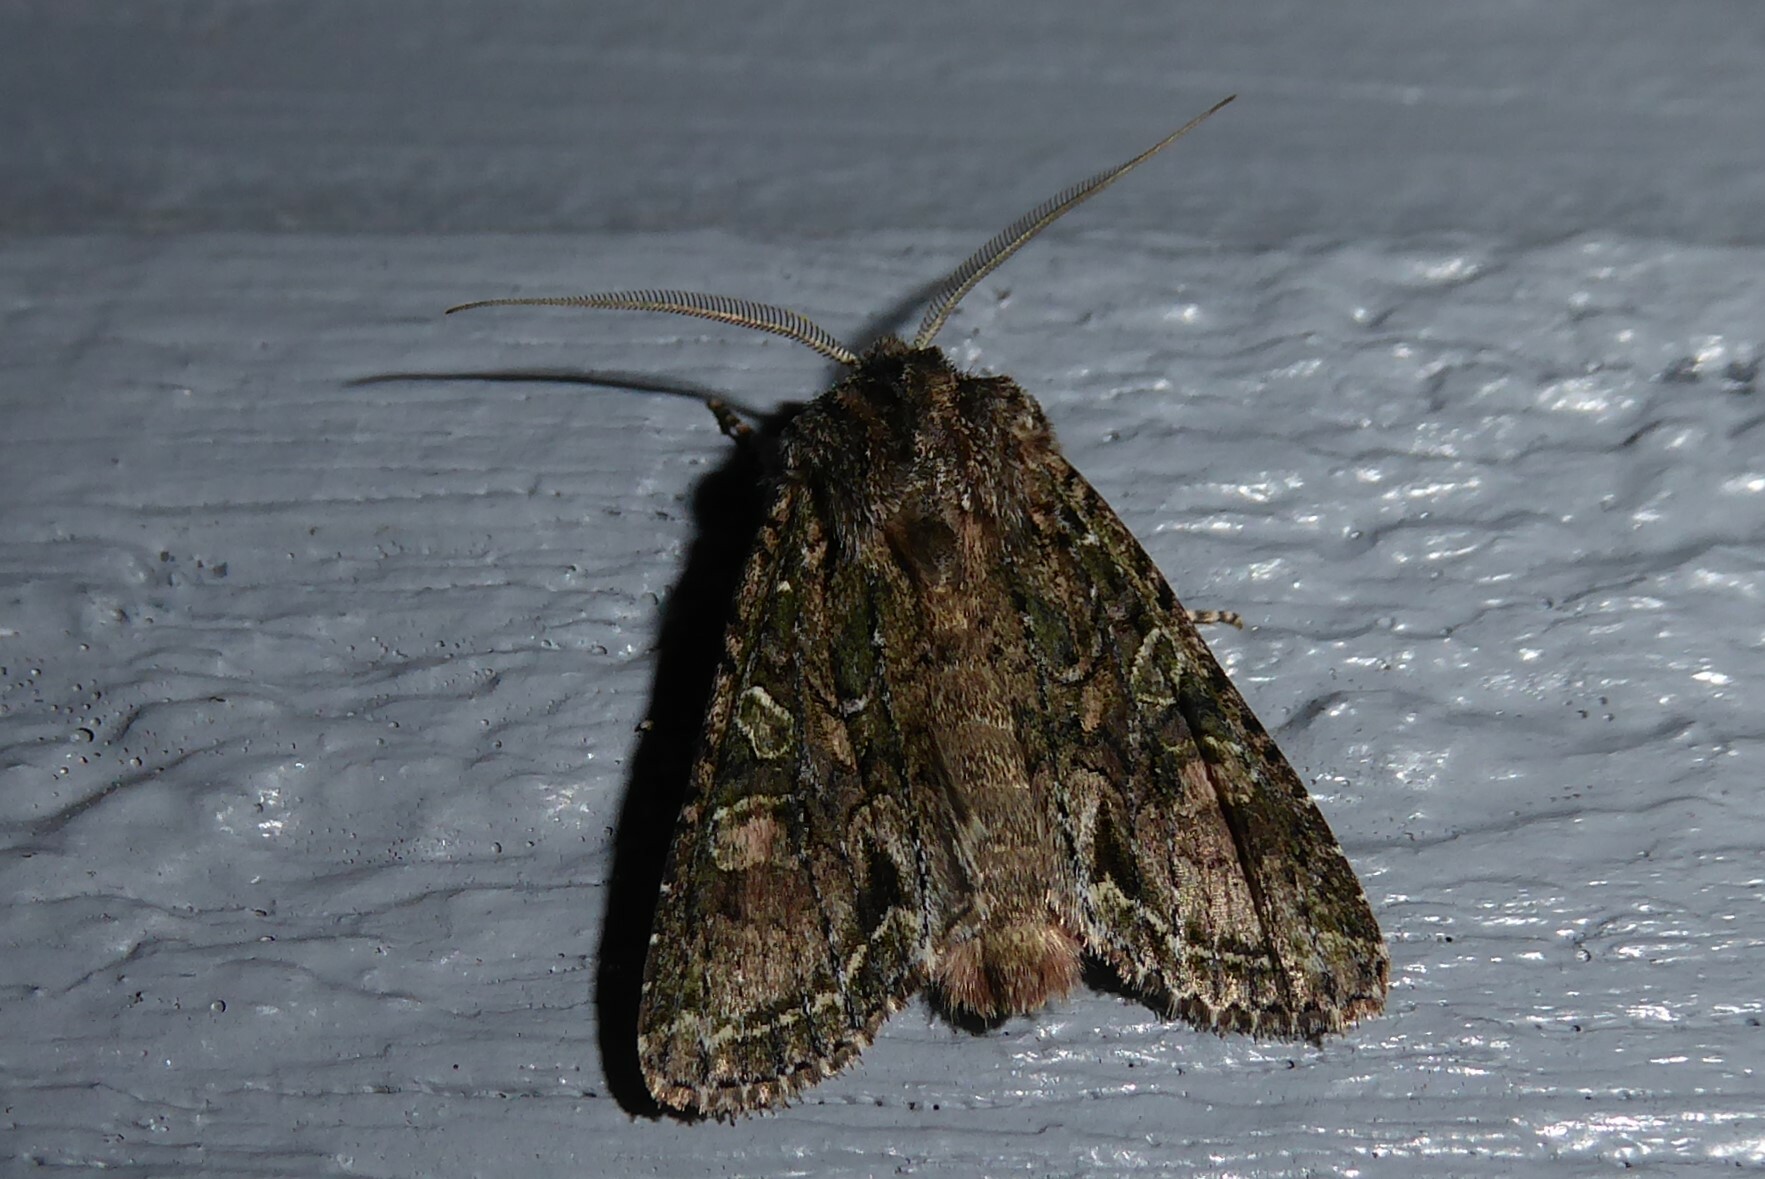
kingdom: Animalia
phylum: Arthropoda
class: Insecta
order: Lepidoptera
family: Noctuidae
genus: Ichneutica
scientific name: Ichneutica mutans
